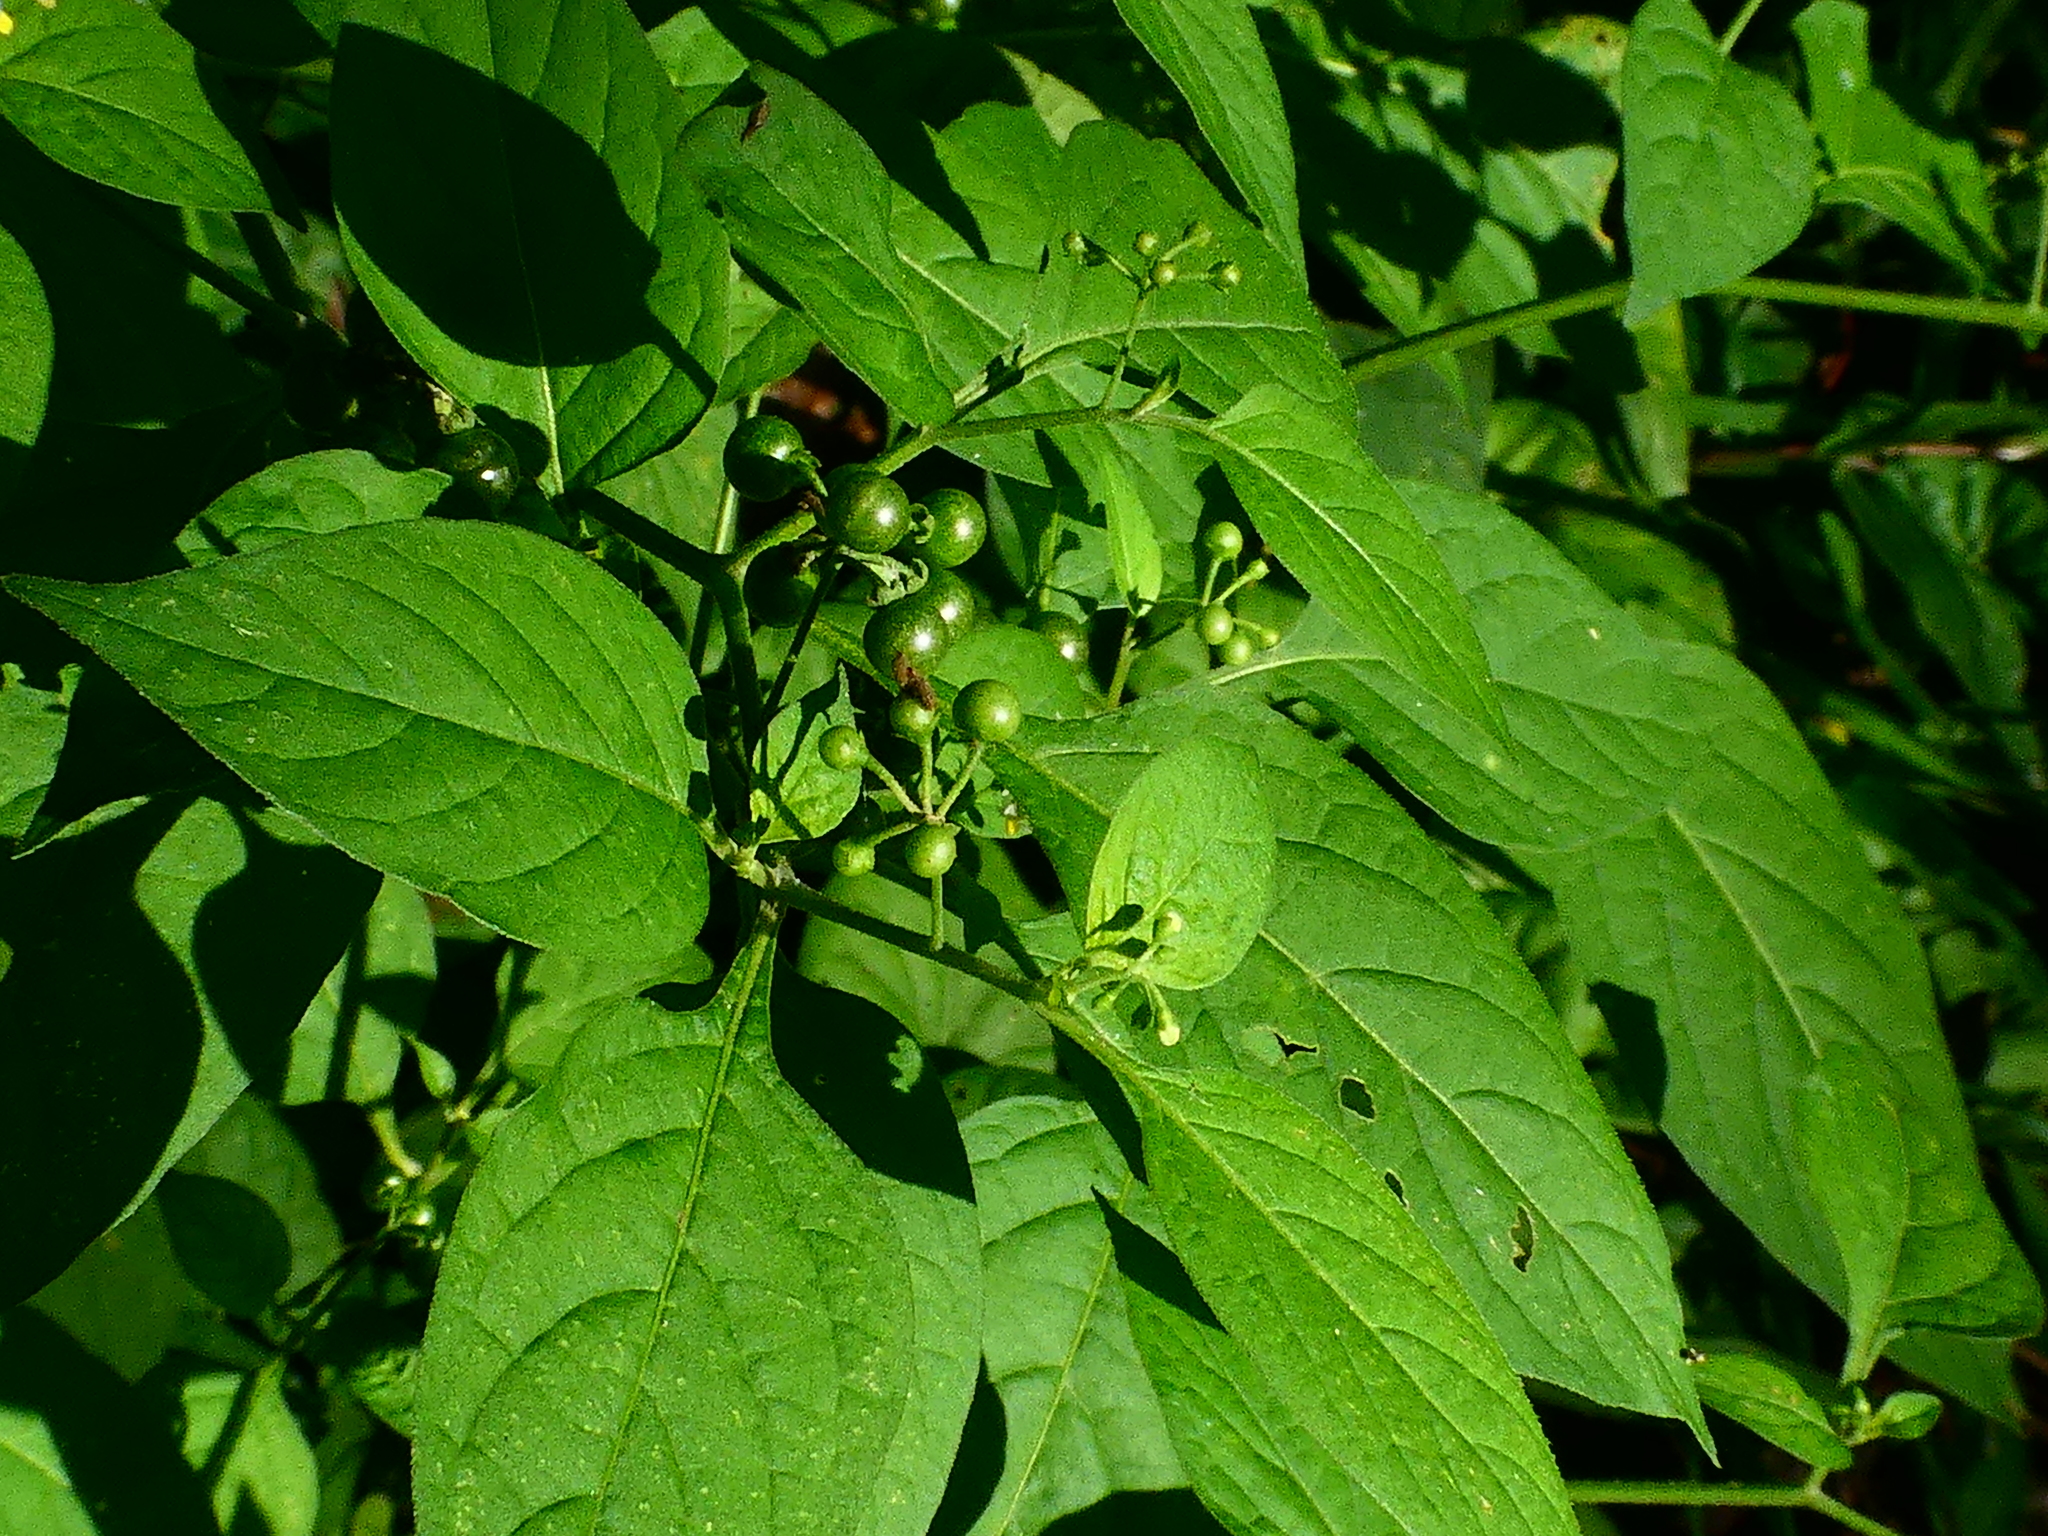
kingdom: Plantae
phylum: Tracheophyta
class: Magnoliopsida
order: Solanales
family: Solanaceae
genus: Solanum
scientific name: Solanum americanum
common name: American black nightshade
